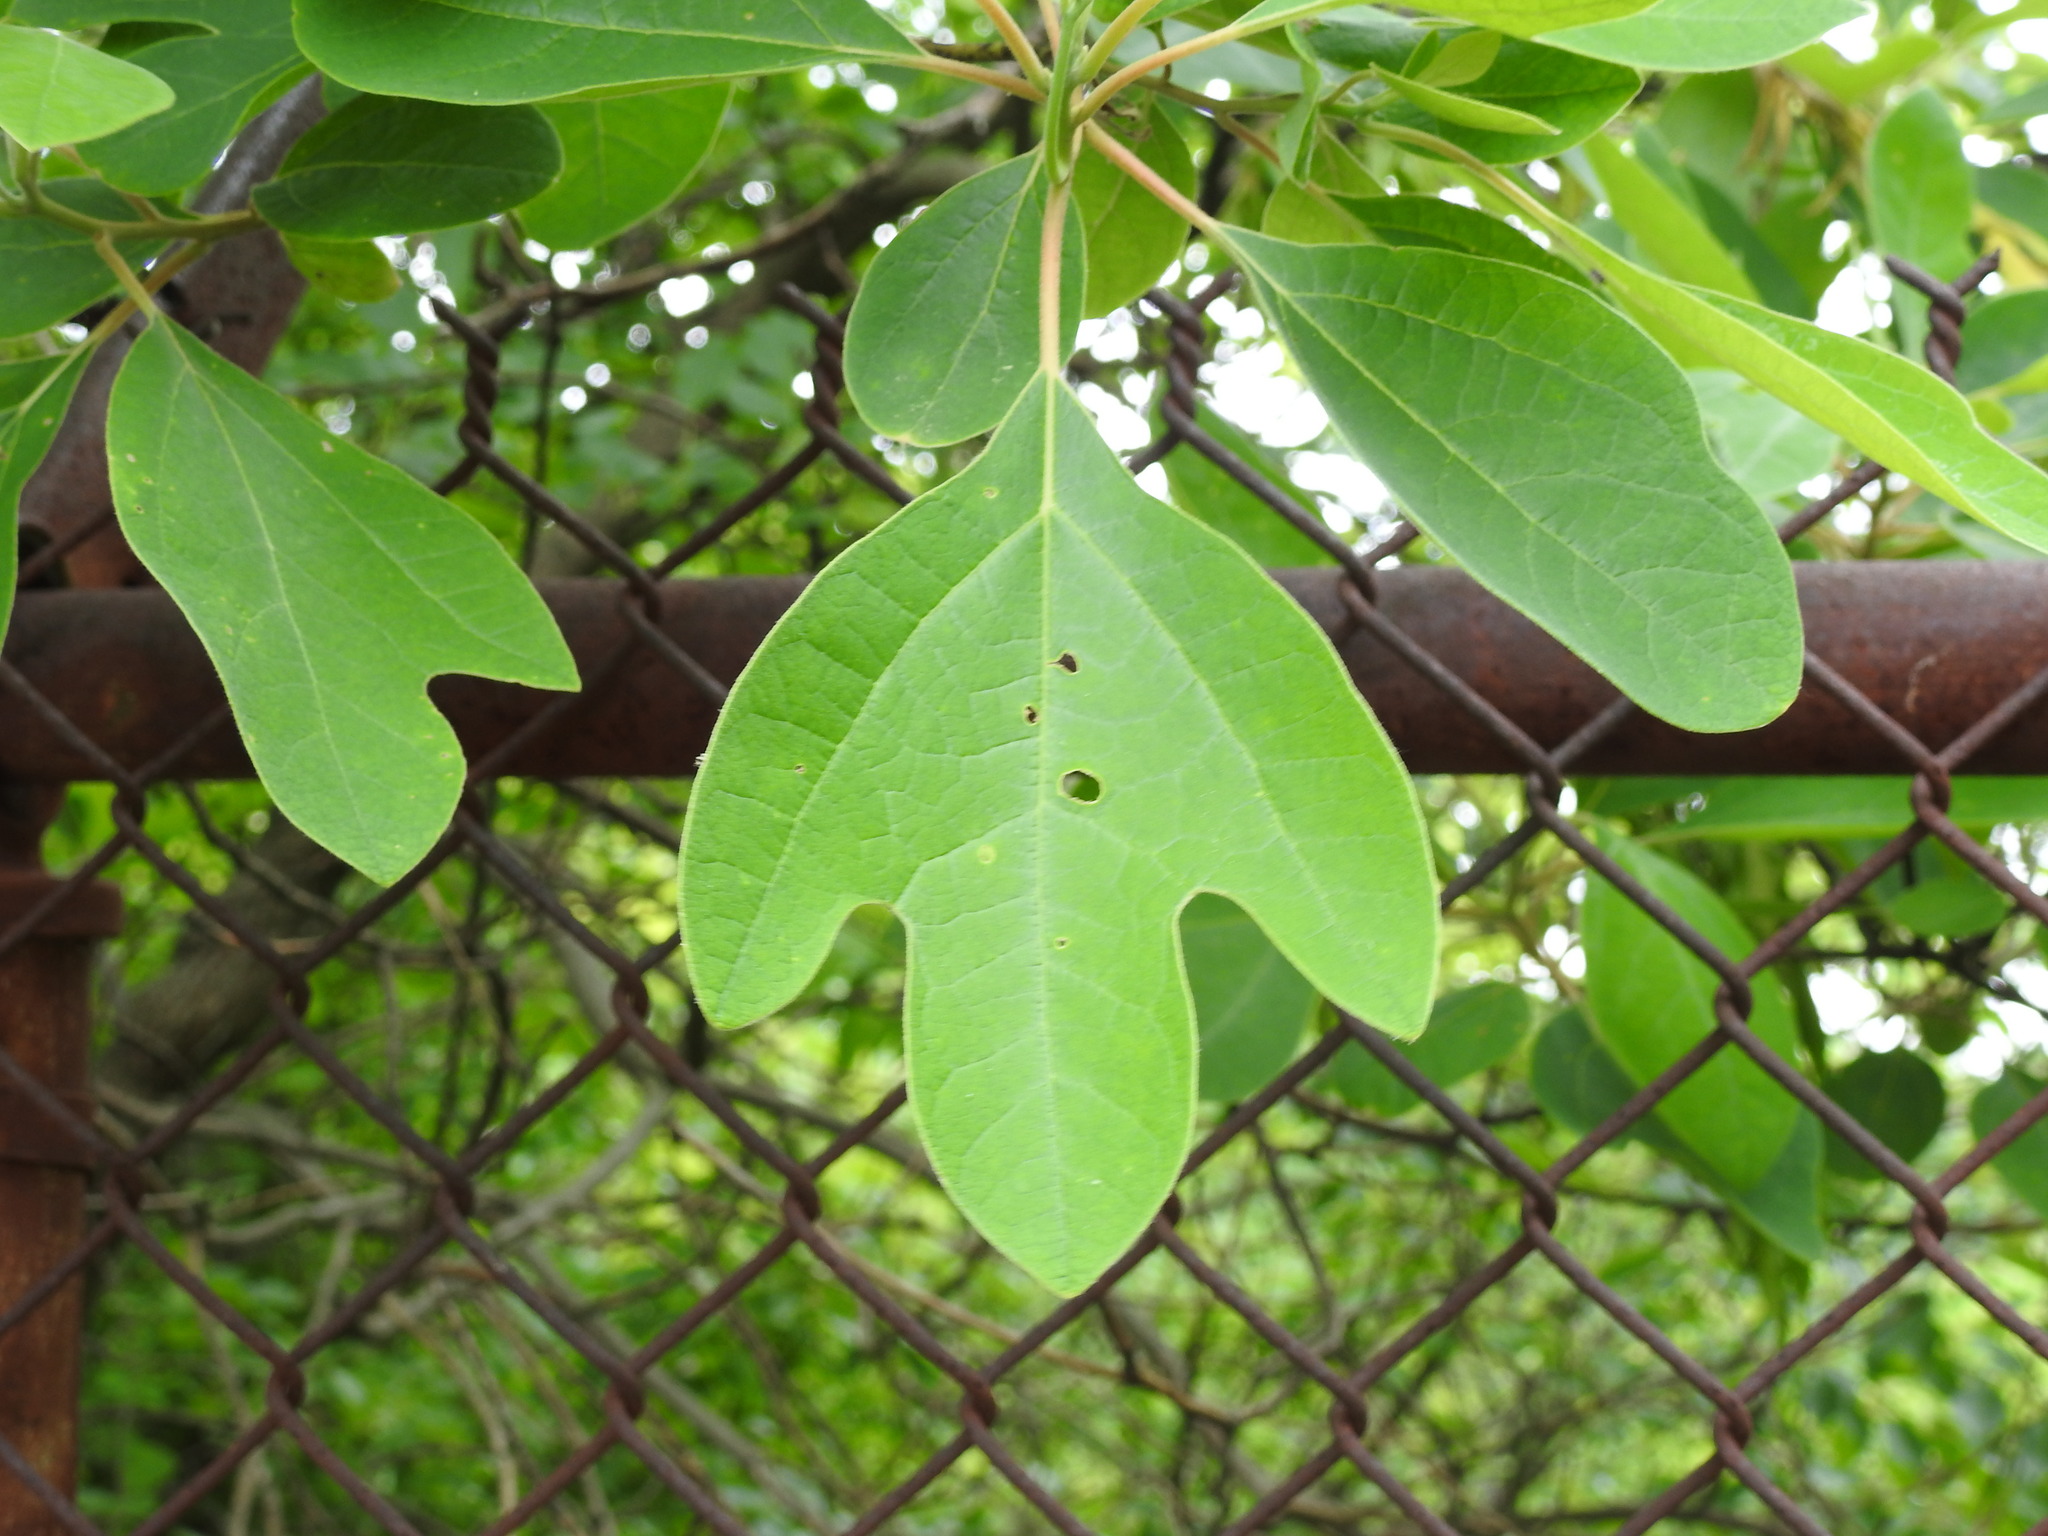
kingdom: Plantae
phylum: Tracheophyta
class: Magnoliopsida
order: Laurales
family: Lauraceae
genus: Sassafras
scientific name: Sassafras albidum
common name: Sassafras
